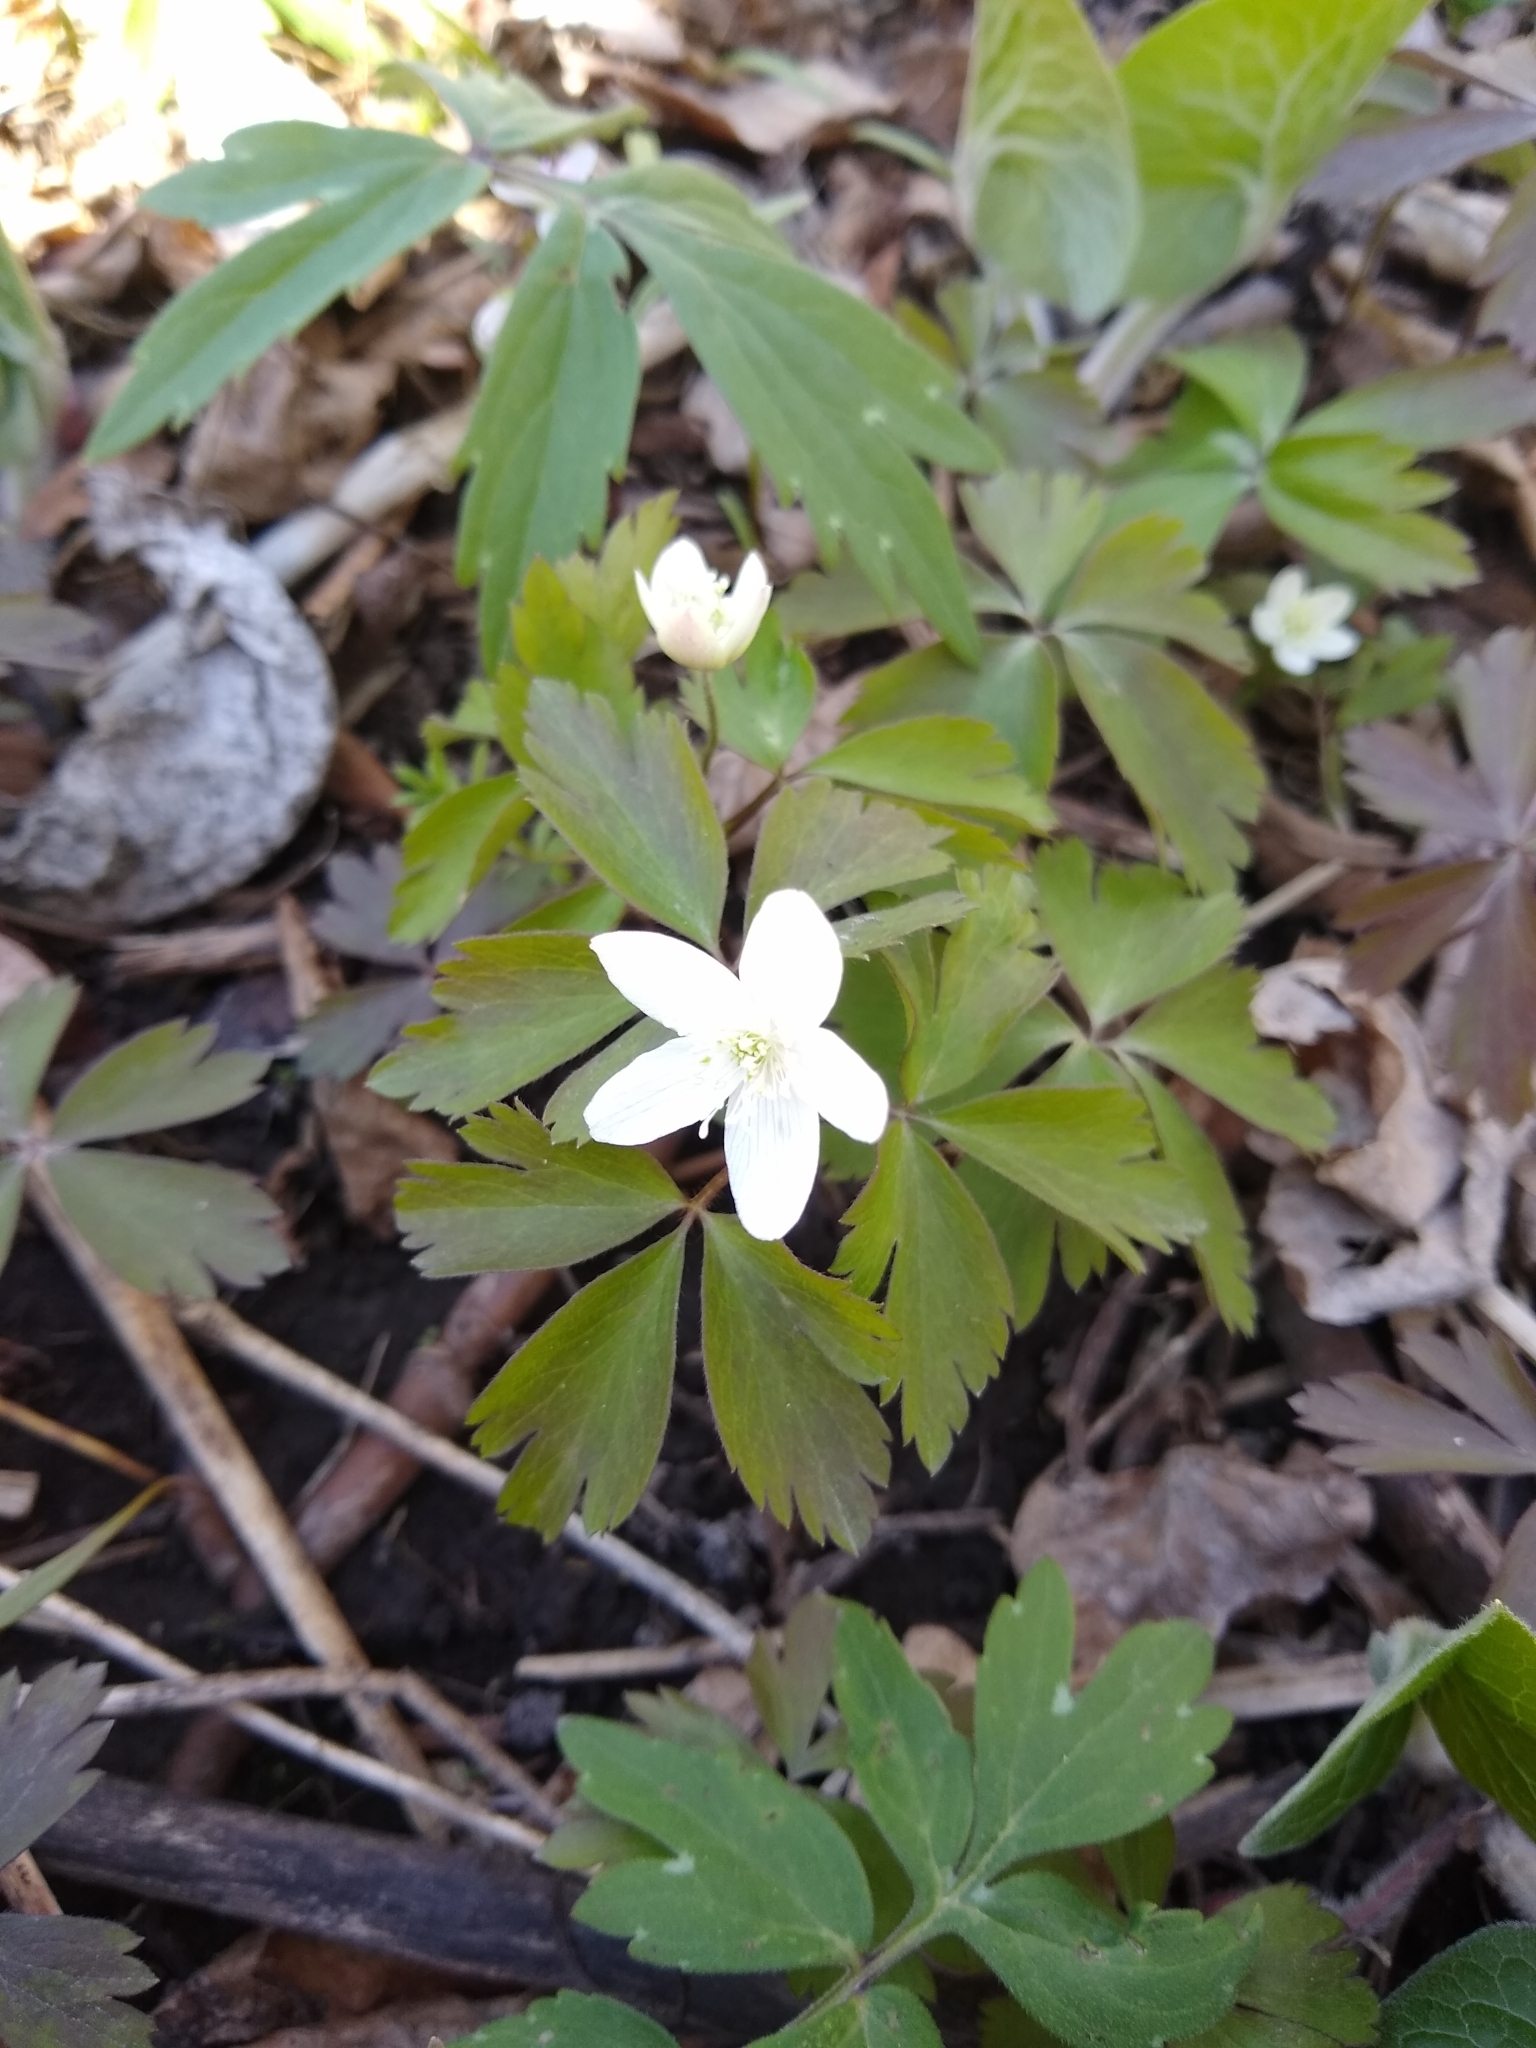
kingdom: Plantae
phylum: Tracheophyta
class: Magnoliopsida
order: Ranunculales
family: Ranunculaceae
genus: Anemone
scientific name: Anemone quinquefolia
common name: Wood anemone
